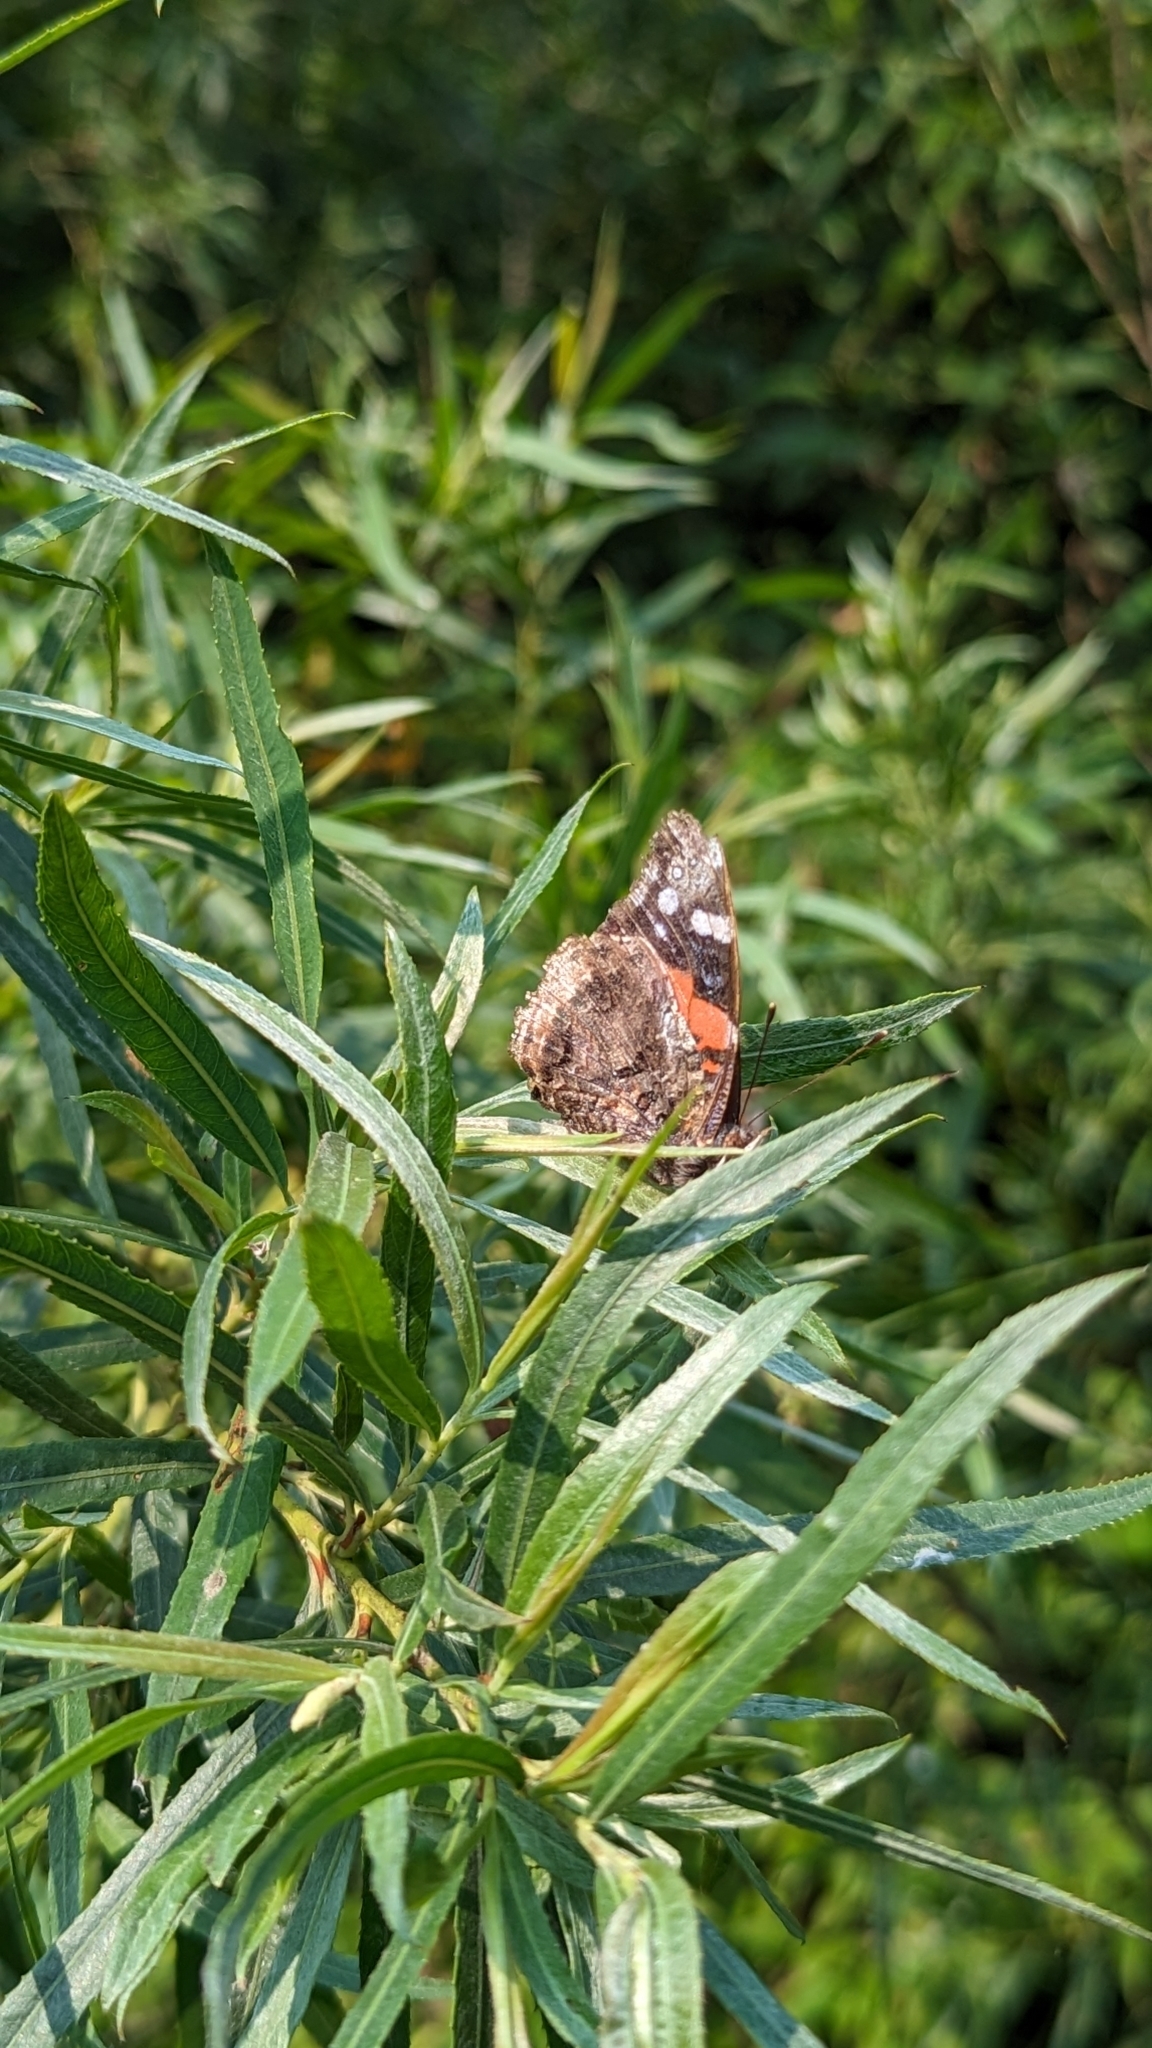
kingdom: Animalia
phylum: Arthropoda
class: Insecta
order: Lepidoptera
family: Nymphalidae
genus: Vanessa
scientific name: Vanessa atalanta
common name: Red admiral
